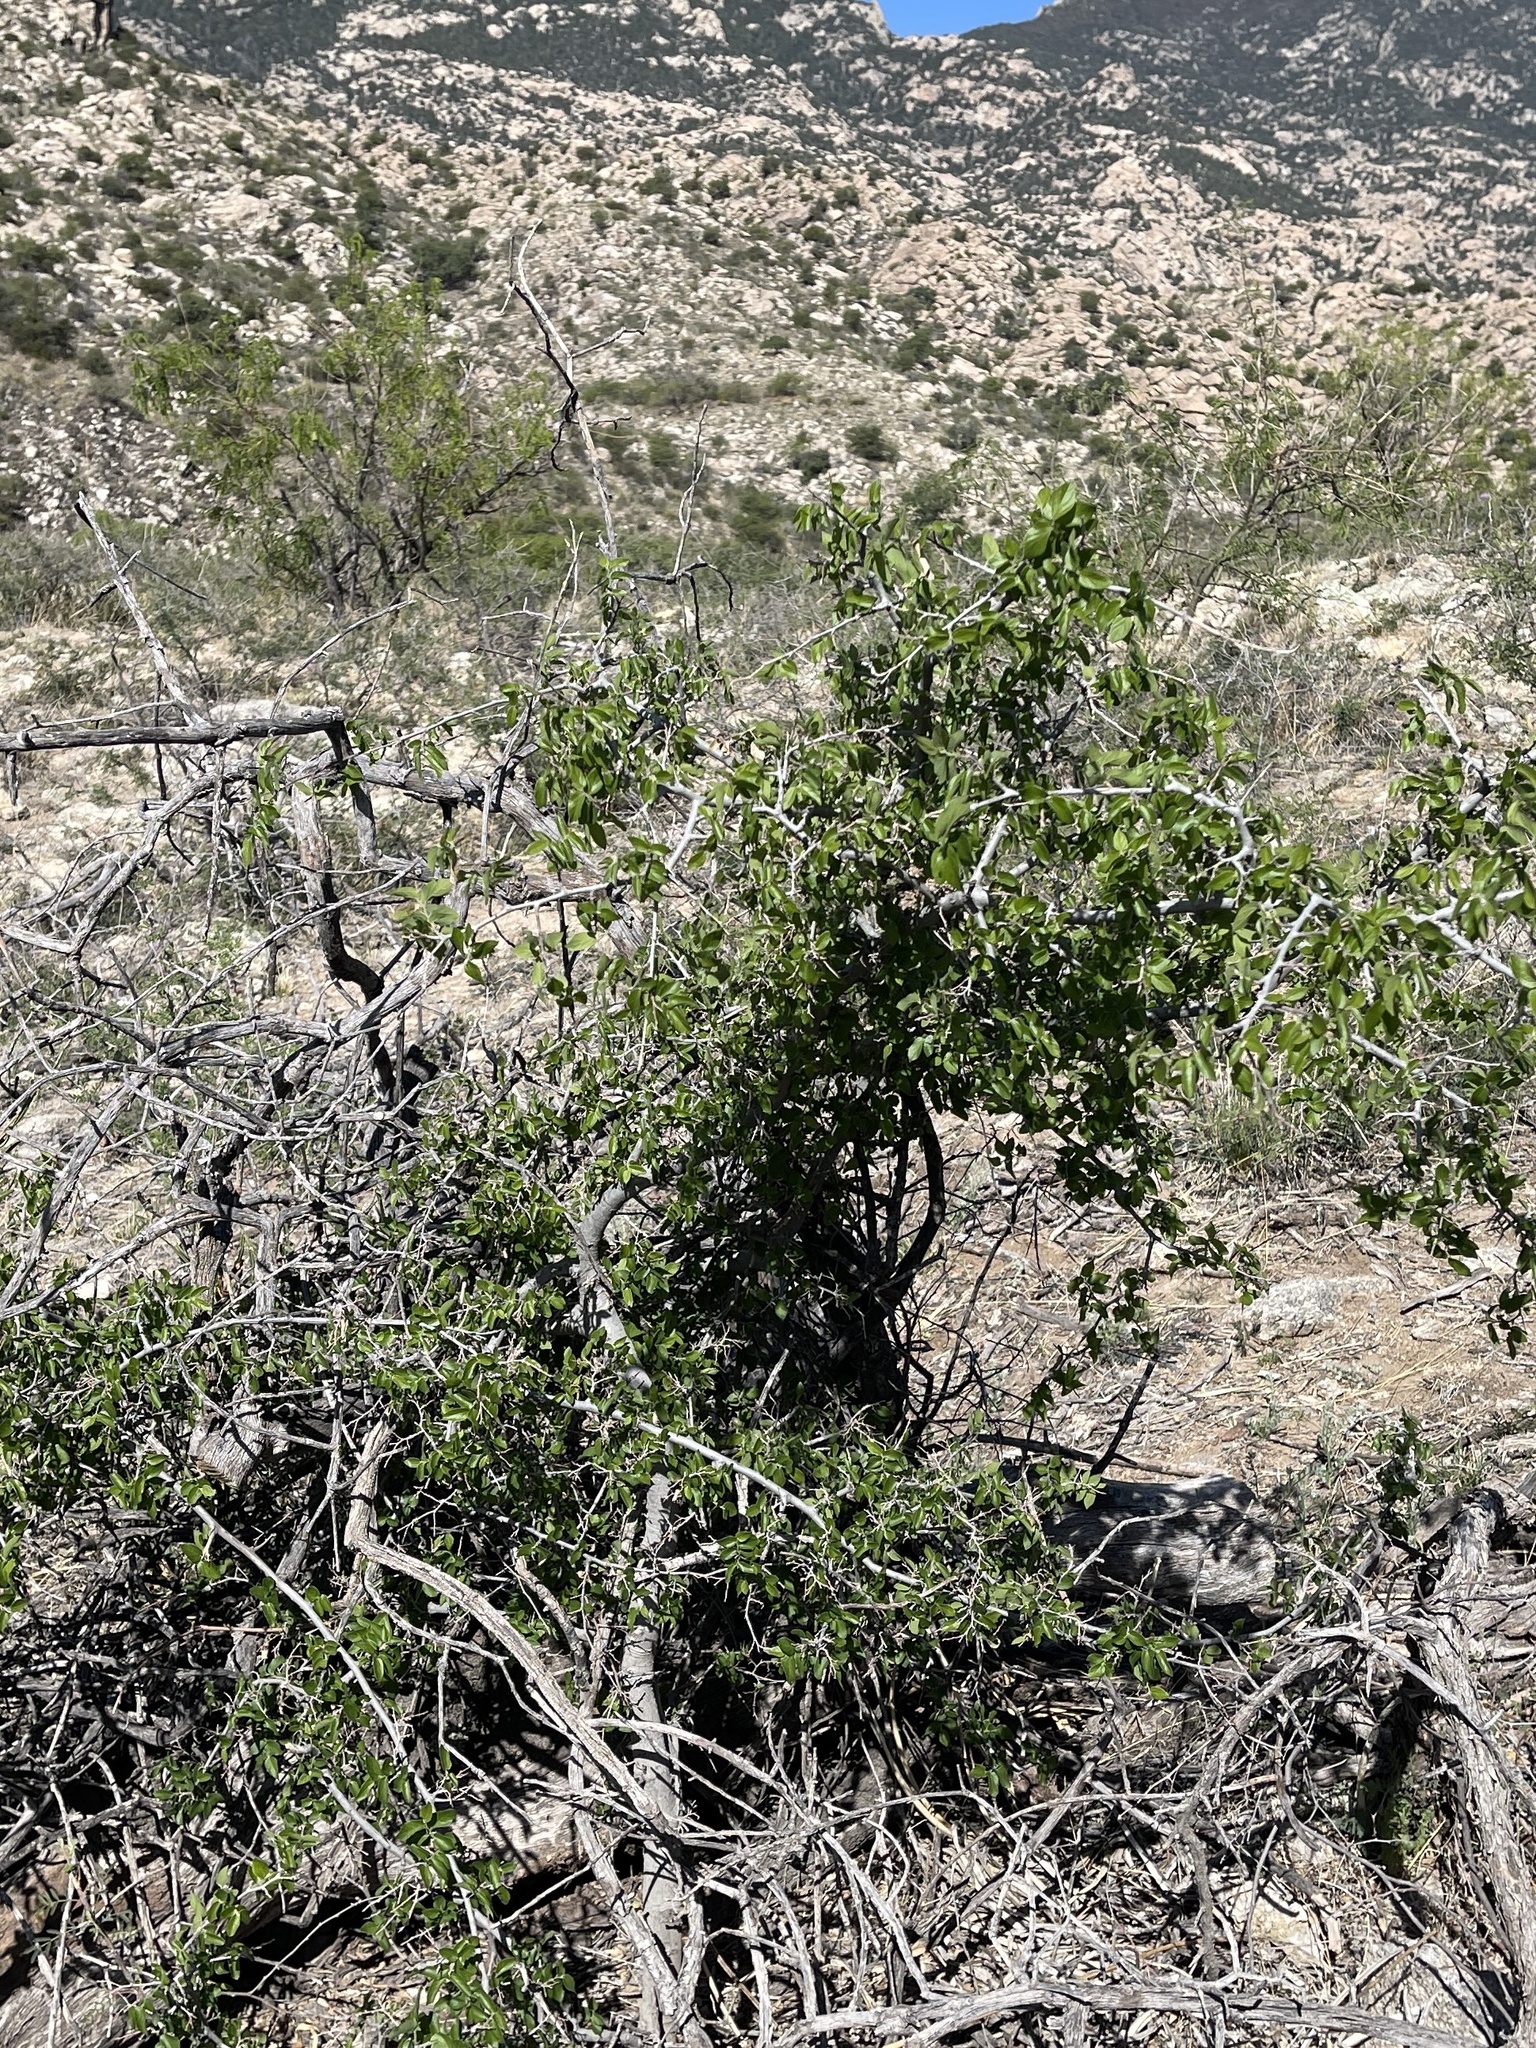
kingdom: Plantae
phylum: Tracheophyta
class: Magnoliopsida
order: Rosales
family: Cannabaceae
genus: Celtis
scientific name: Celtis pallida
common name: Desert hackberry
